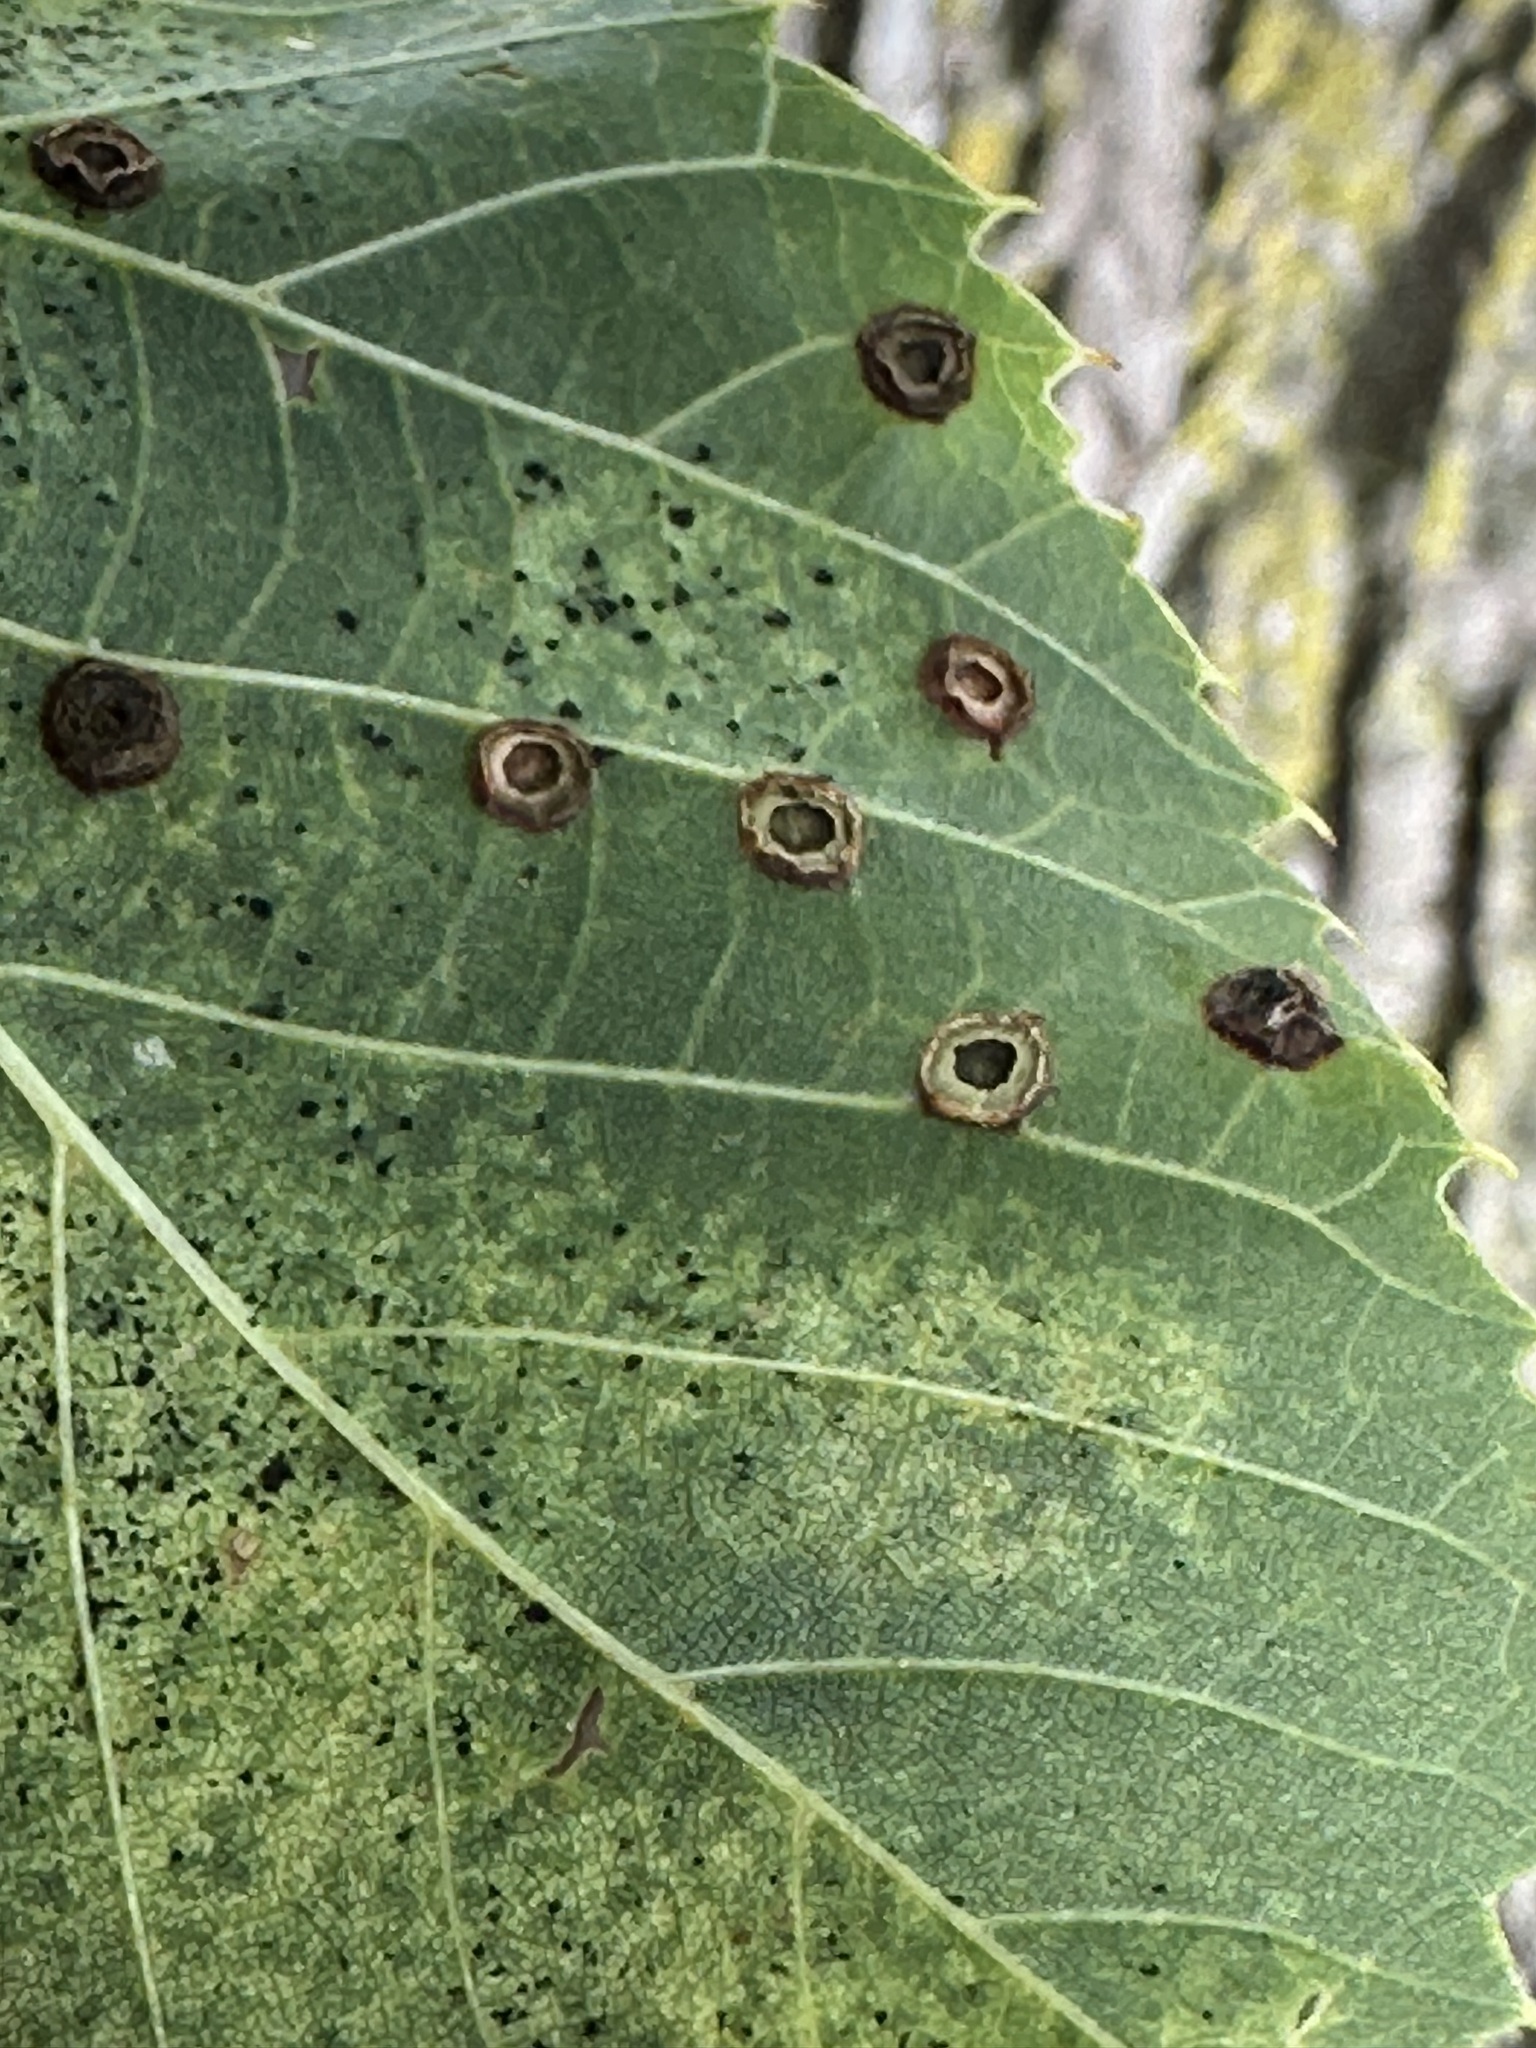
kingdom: Animalia
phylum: Arthropoda
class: Insecta
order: Diptera
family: Cecidomyiidae
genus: Contarinia
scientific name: Contarinia verrucicola
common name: Linden wart gall midge
